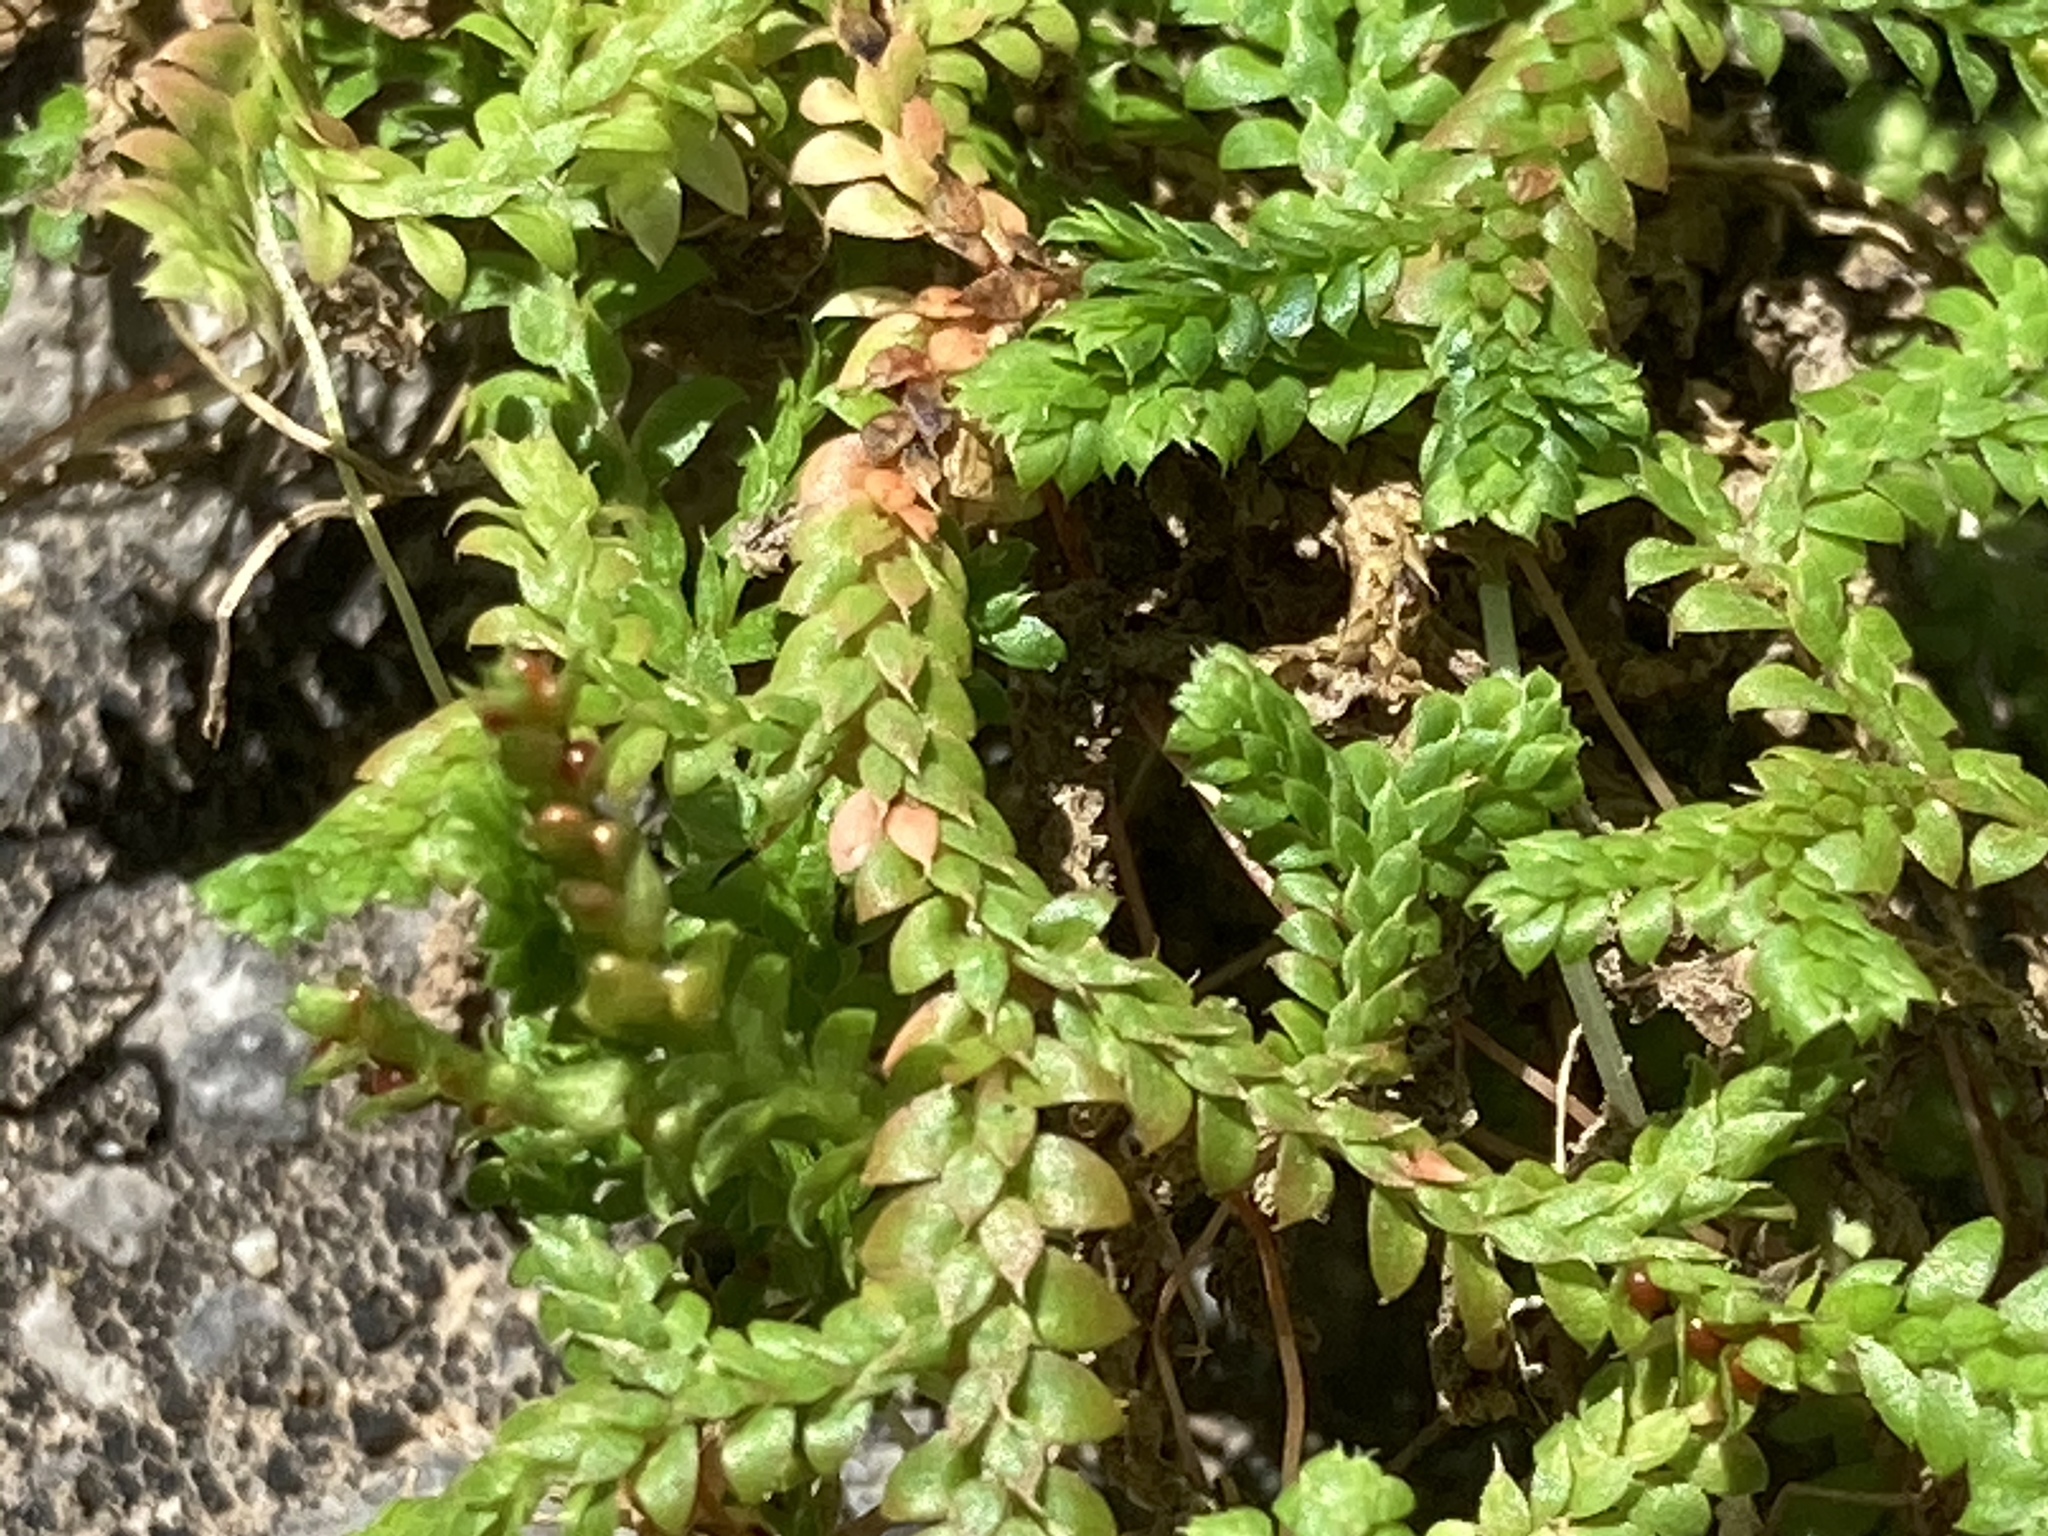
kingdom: Plantae
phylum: Tracheophyta
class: Lycopodiopsida
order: Selaginellales
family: Selaginellaceae
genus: Selaginella
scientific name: Selaginella denticulata
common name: Toothed-leaved clubmoss
